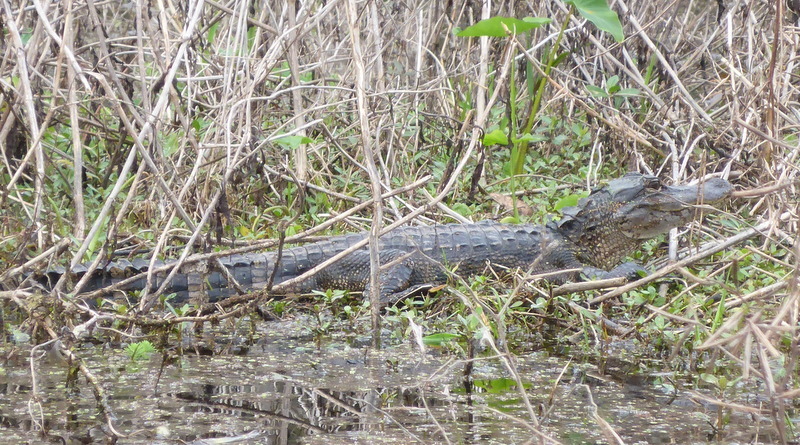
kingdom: Animalia
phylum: Chordata
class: Crocodylia
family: Alligatoridae
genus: Alligator
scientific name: Alligator mississippiensis
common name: American alligator
